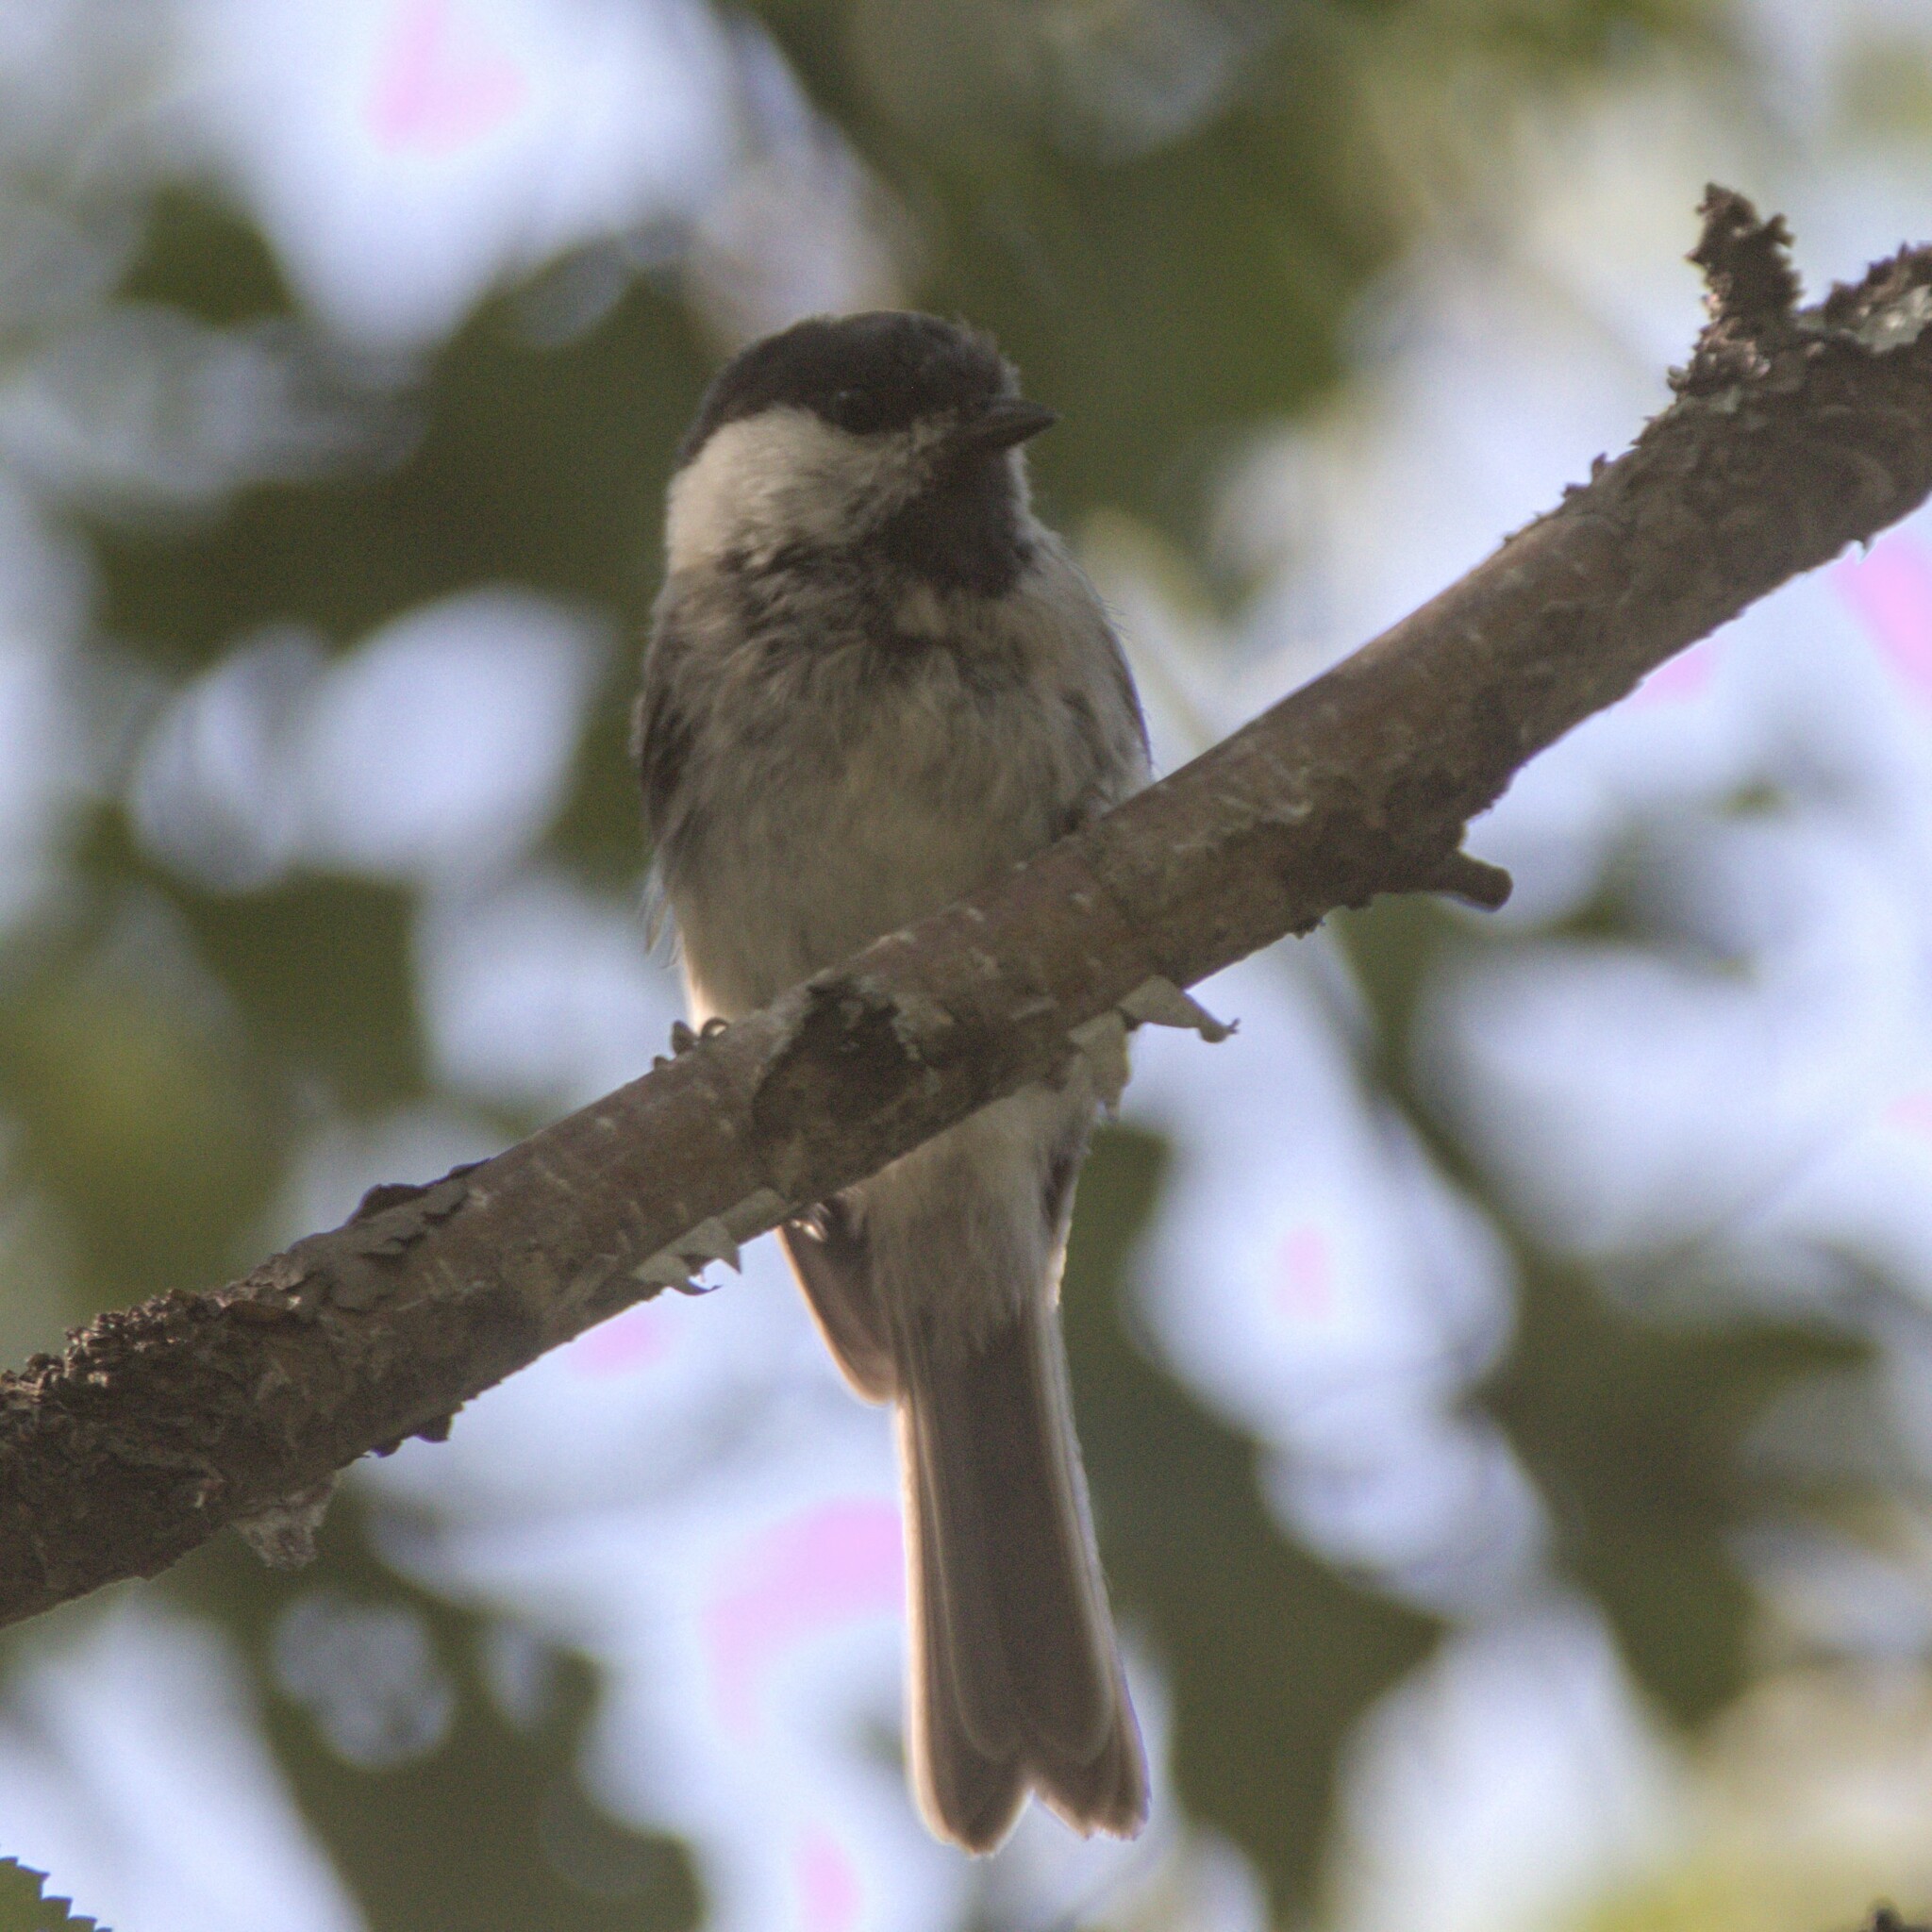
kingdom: Animalia
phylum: Chordata
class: Aves
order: Passeriformes
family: Paridae
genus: Poecile
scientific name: Poecile montanus
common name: Willow tit
